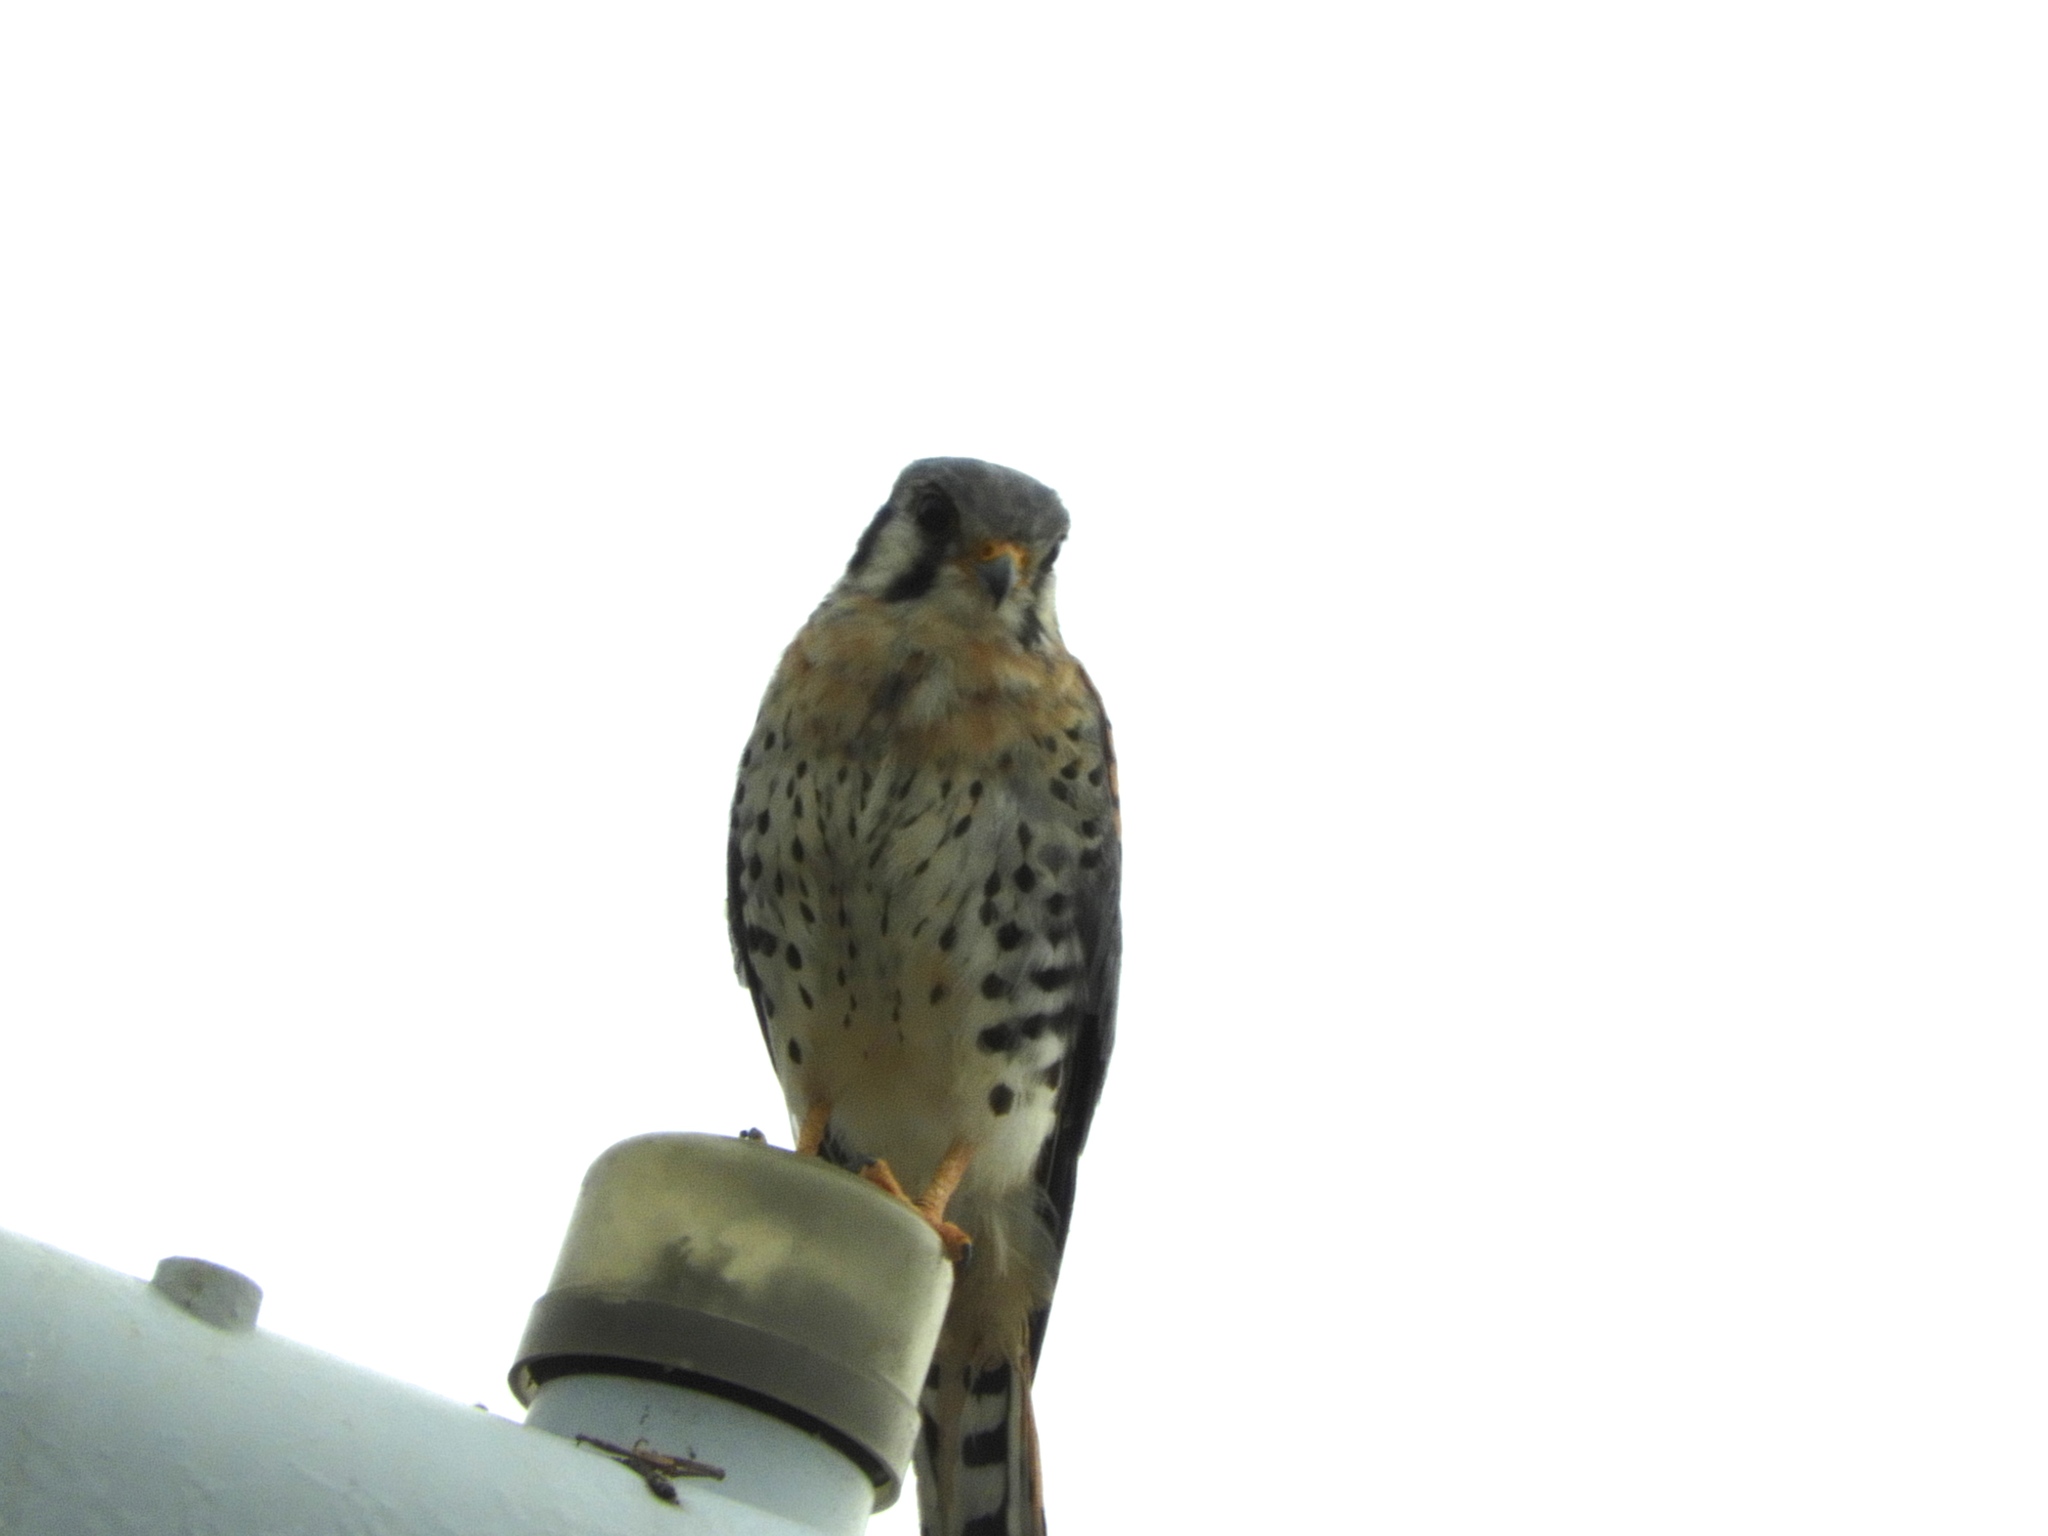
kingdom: Animalia
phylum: Chordata
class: Aves
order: Falconiformes
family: Falconidae
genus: Falco
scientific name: Falco sparverius
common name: American kestrel
